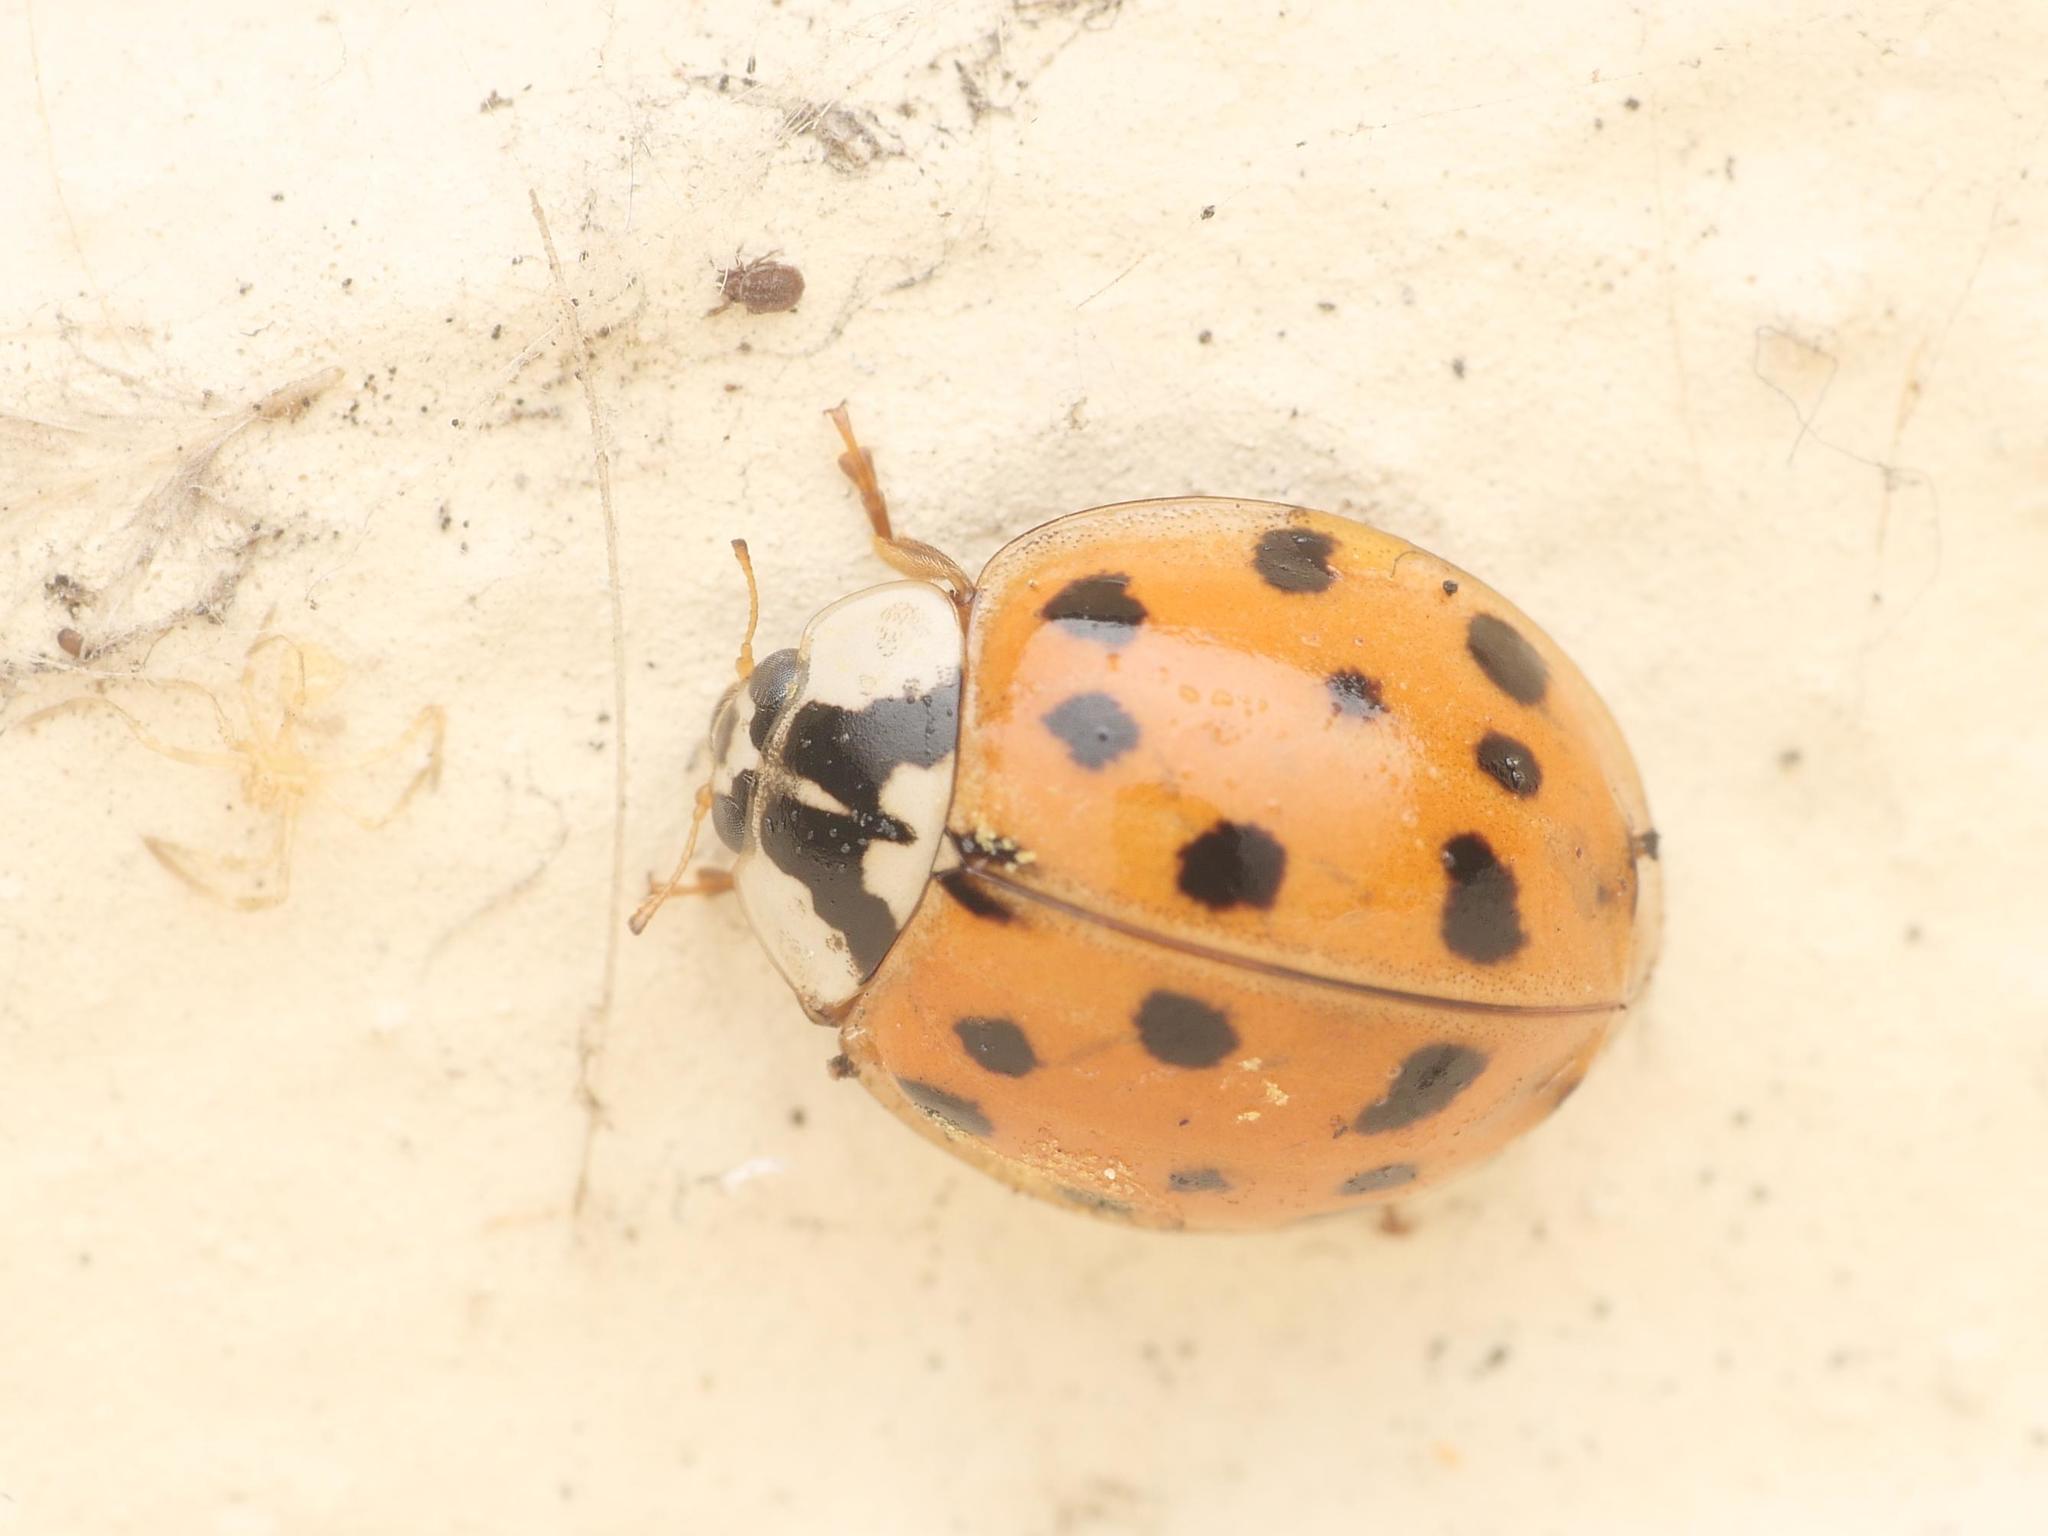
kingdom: Animalia
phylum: Arthropoda
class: Insecta
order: Coleoptera
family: Coccinellidae
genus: Harmonia
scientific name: Harmonia axyridis
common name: Harlequin ladybird
